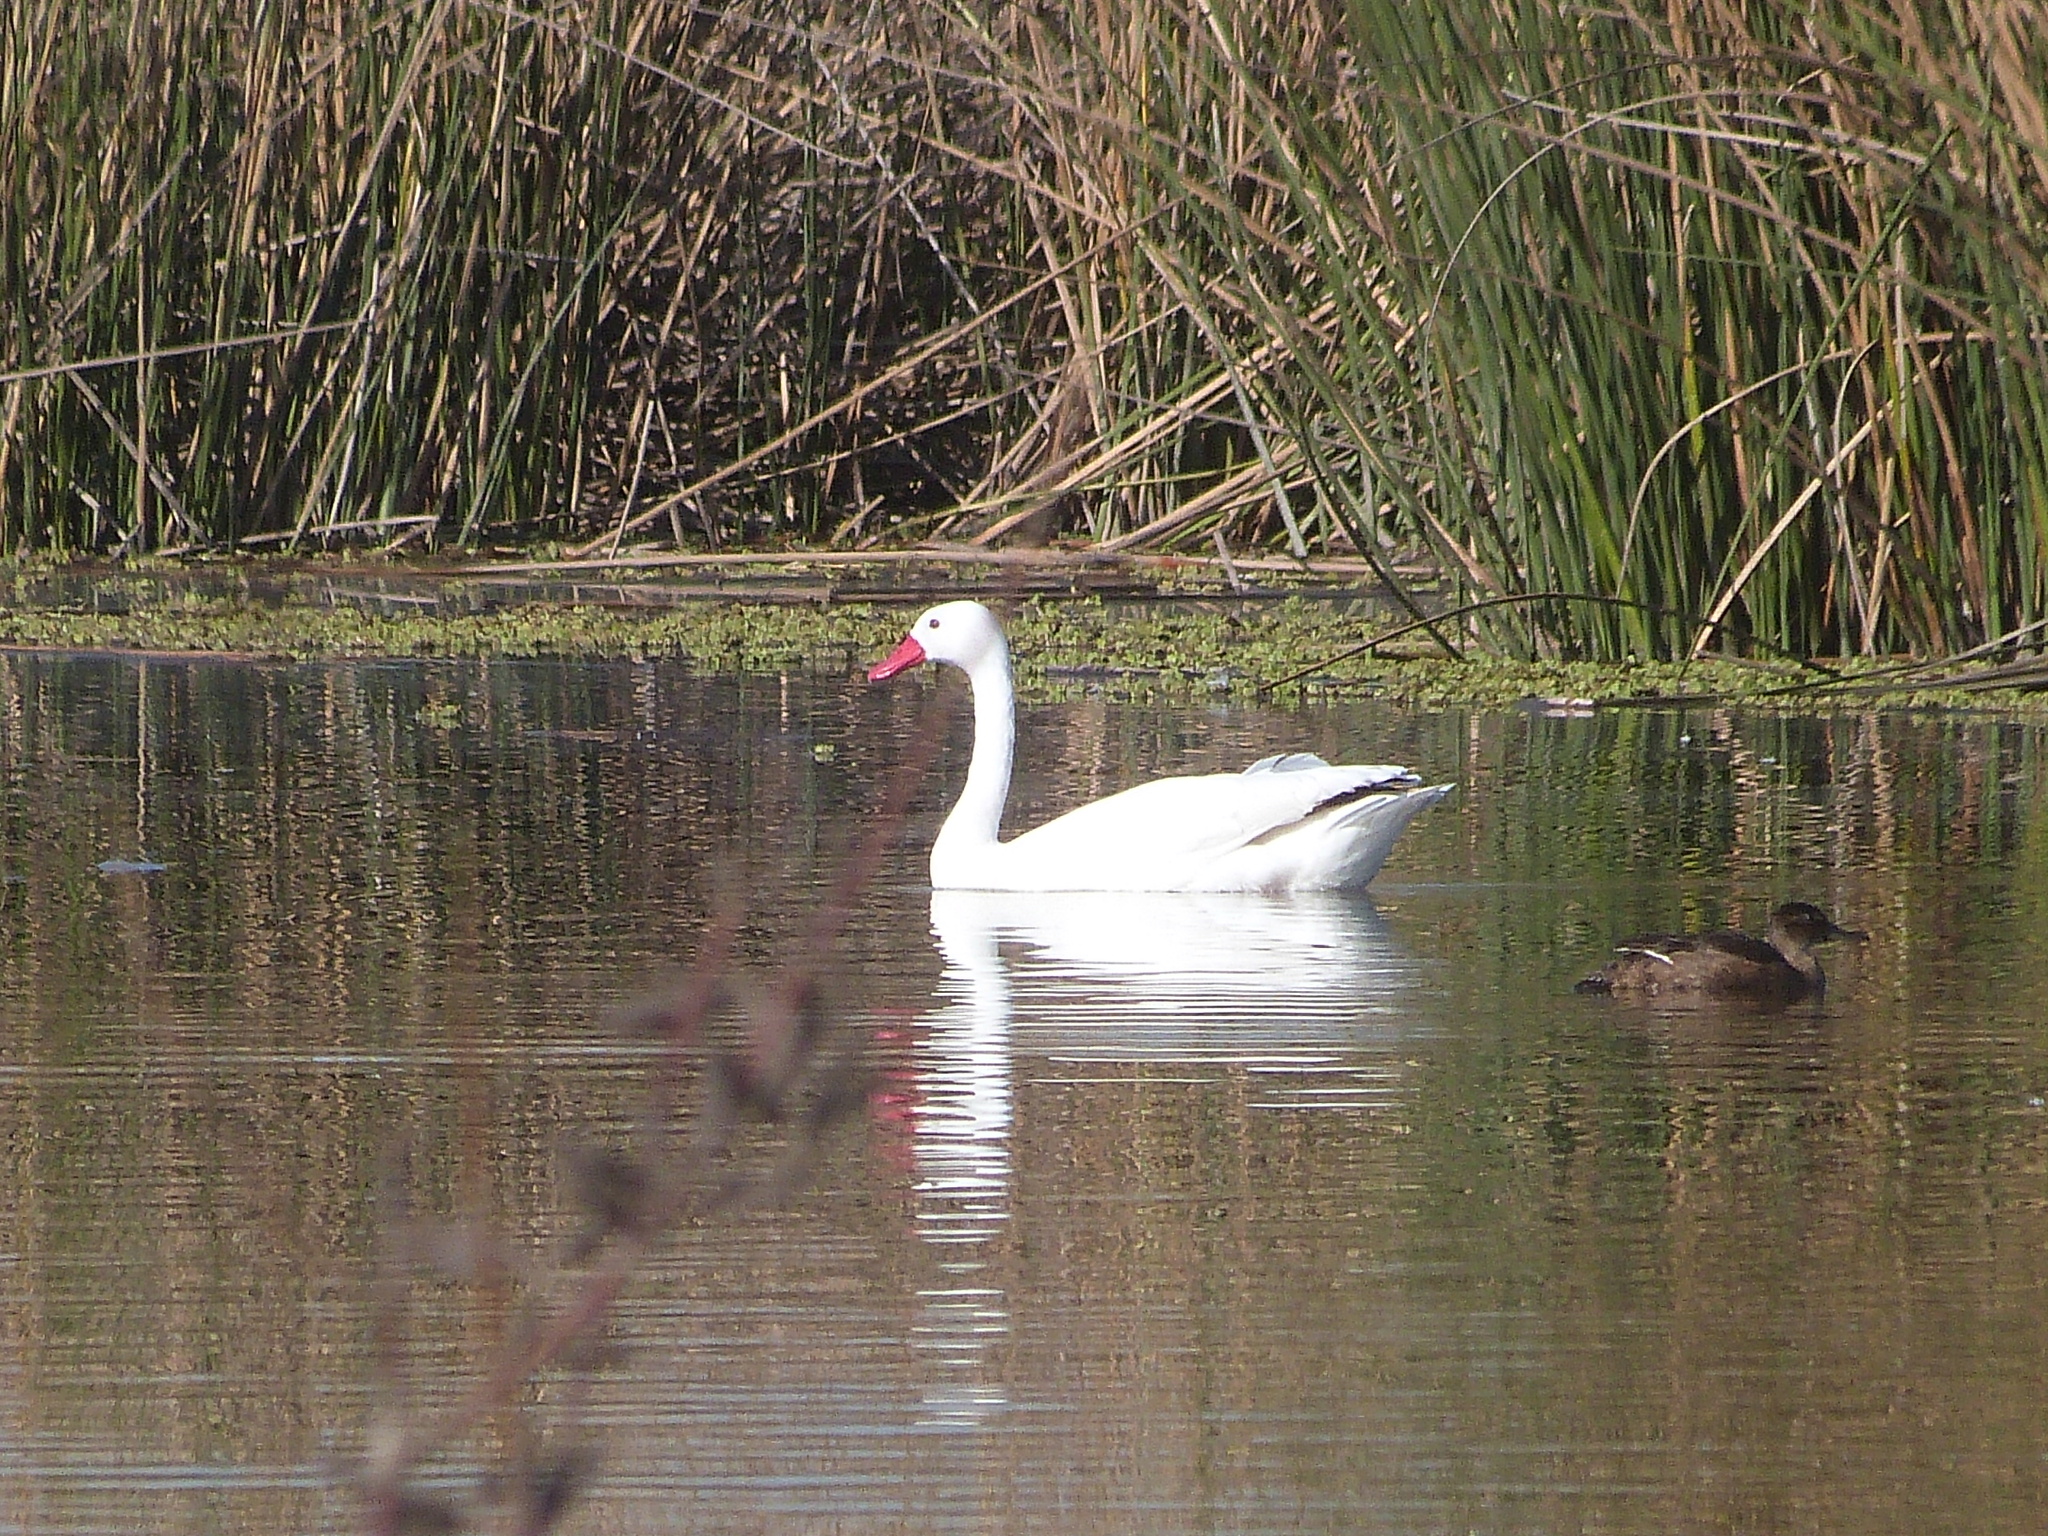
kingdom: Animalia
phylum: Chordata
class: Aves
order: Anseriformes
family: Anatidae
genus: Coscoroba
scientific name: Coscoroba coscoroba
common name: Coscoroba swan
